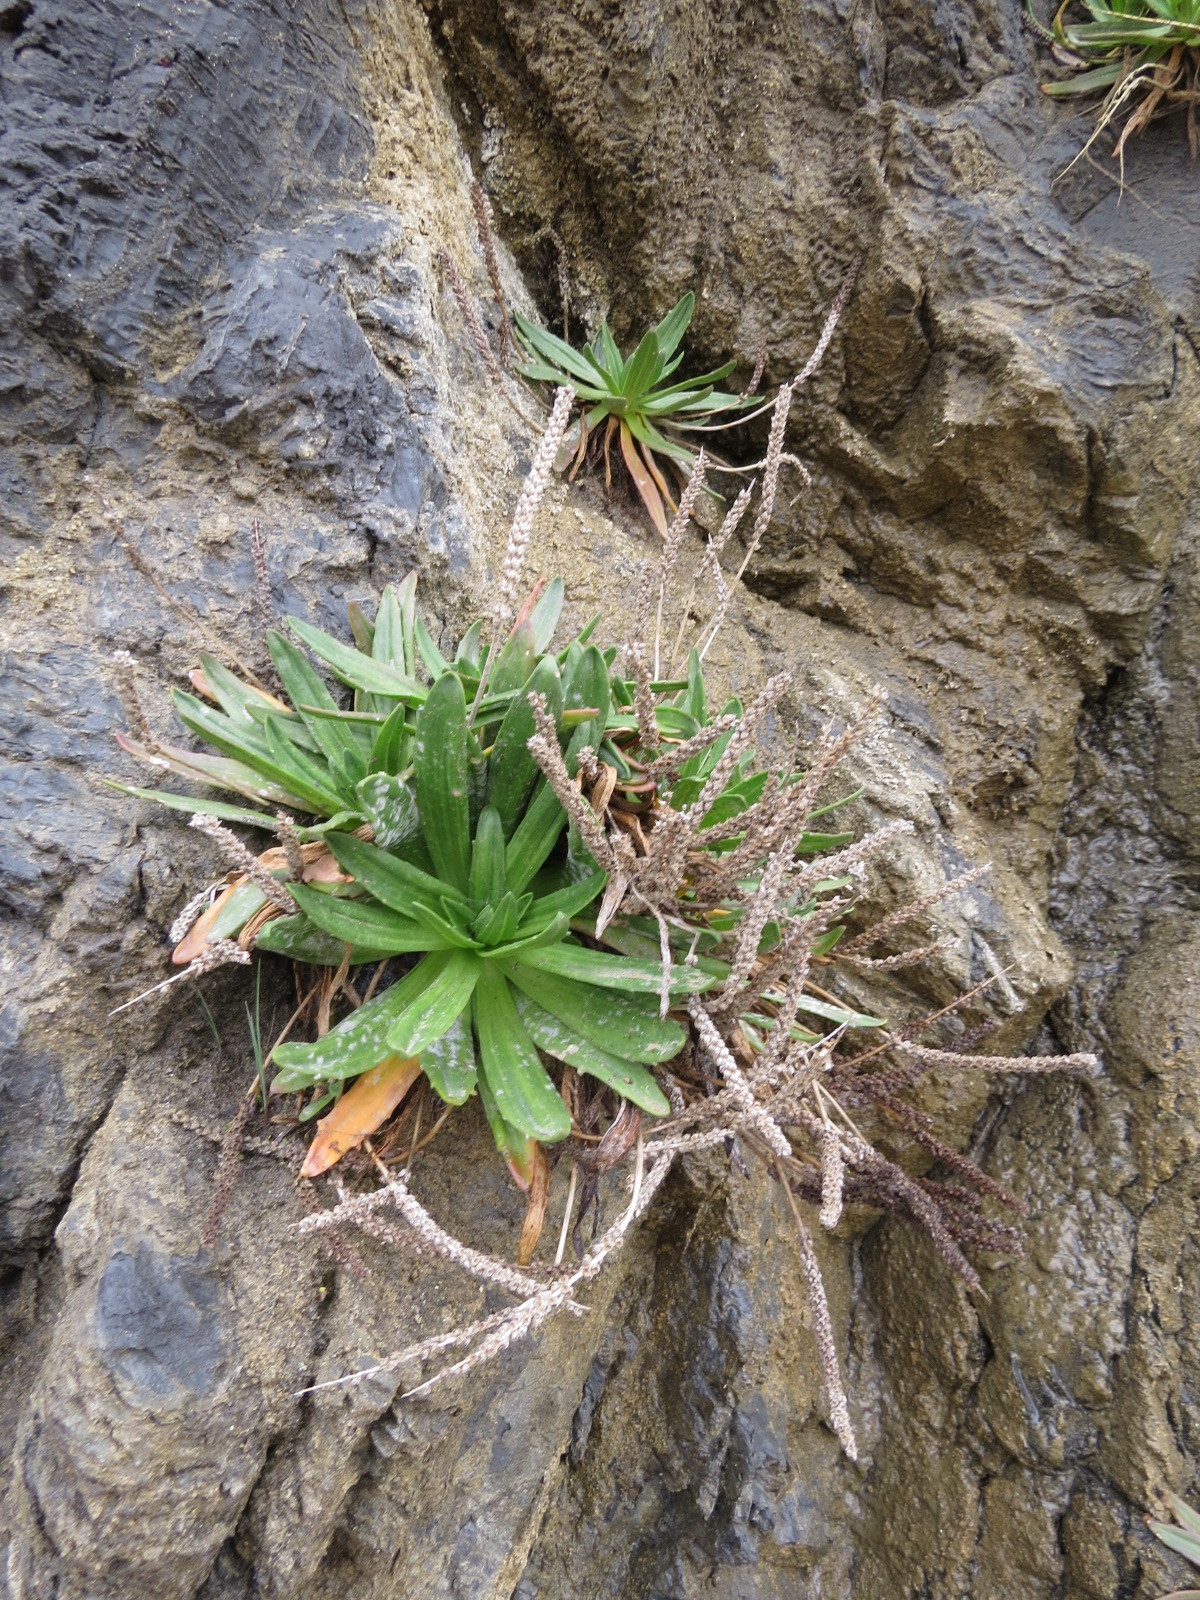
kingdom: Plantae
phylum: Tracheophyta
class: Magnoliopsida
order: Lamiales
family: Plantaginaceae
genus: Plantago
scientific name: Plantago maritima
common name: Sea plantain
